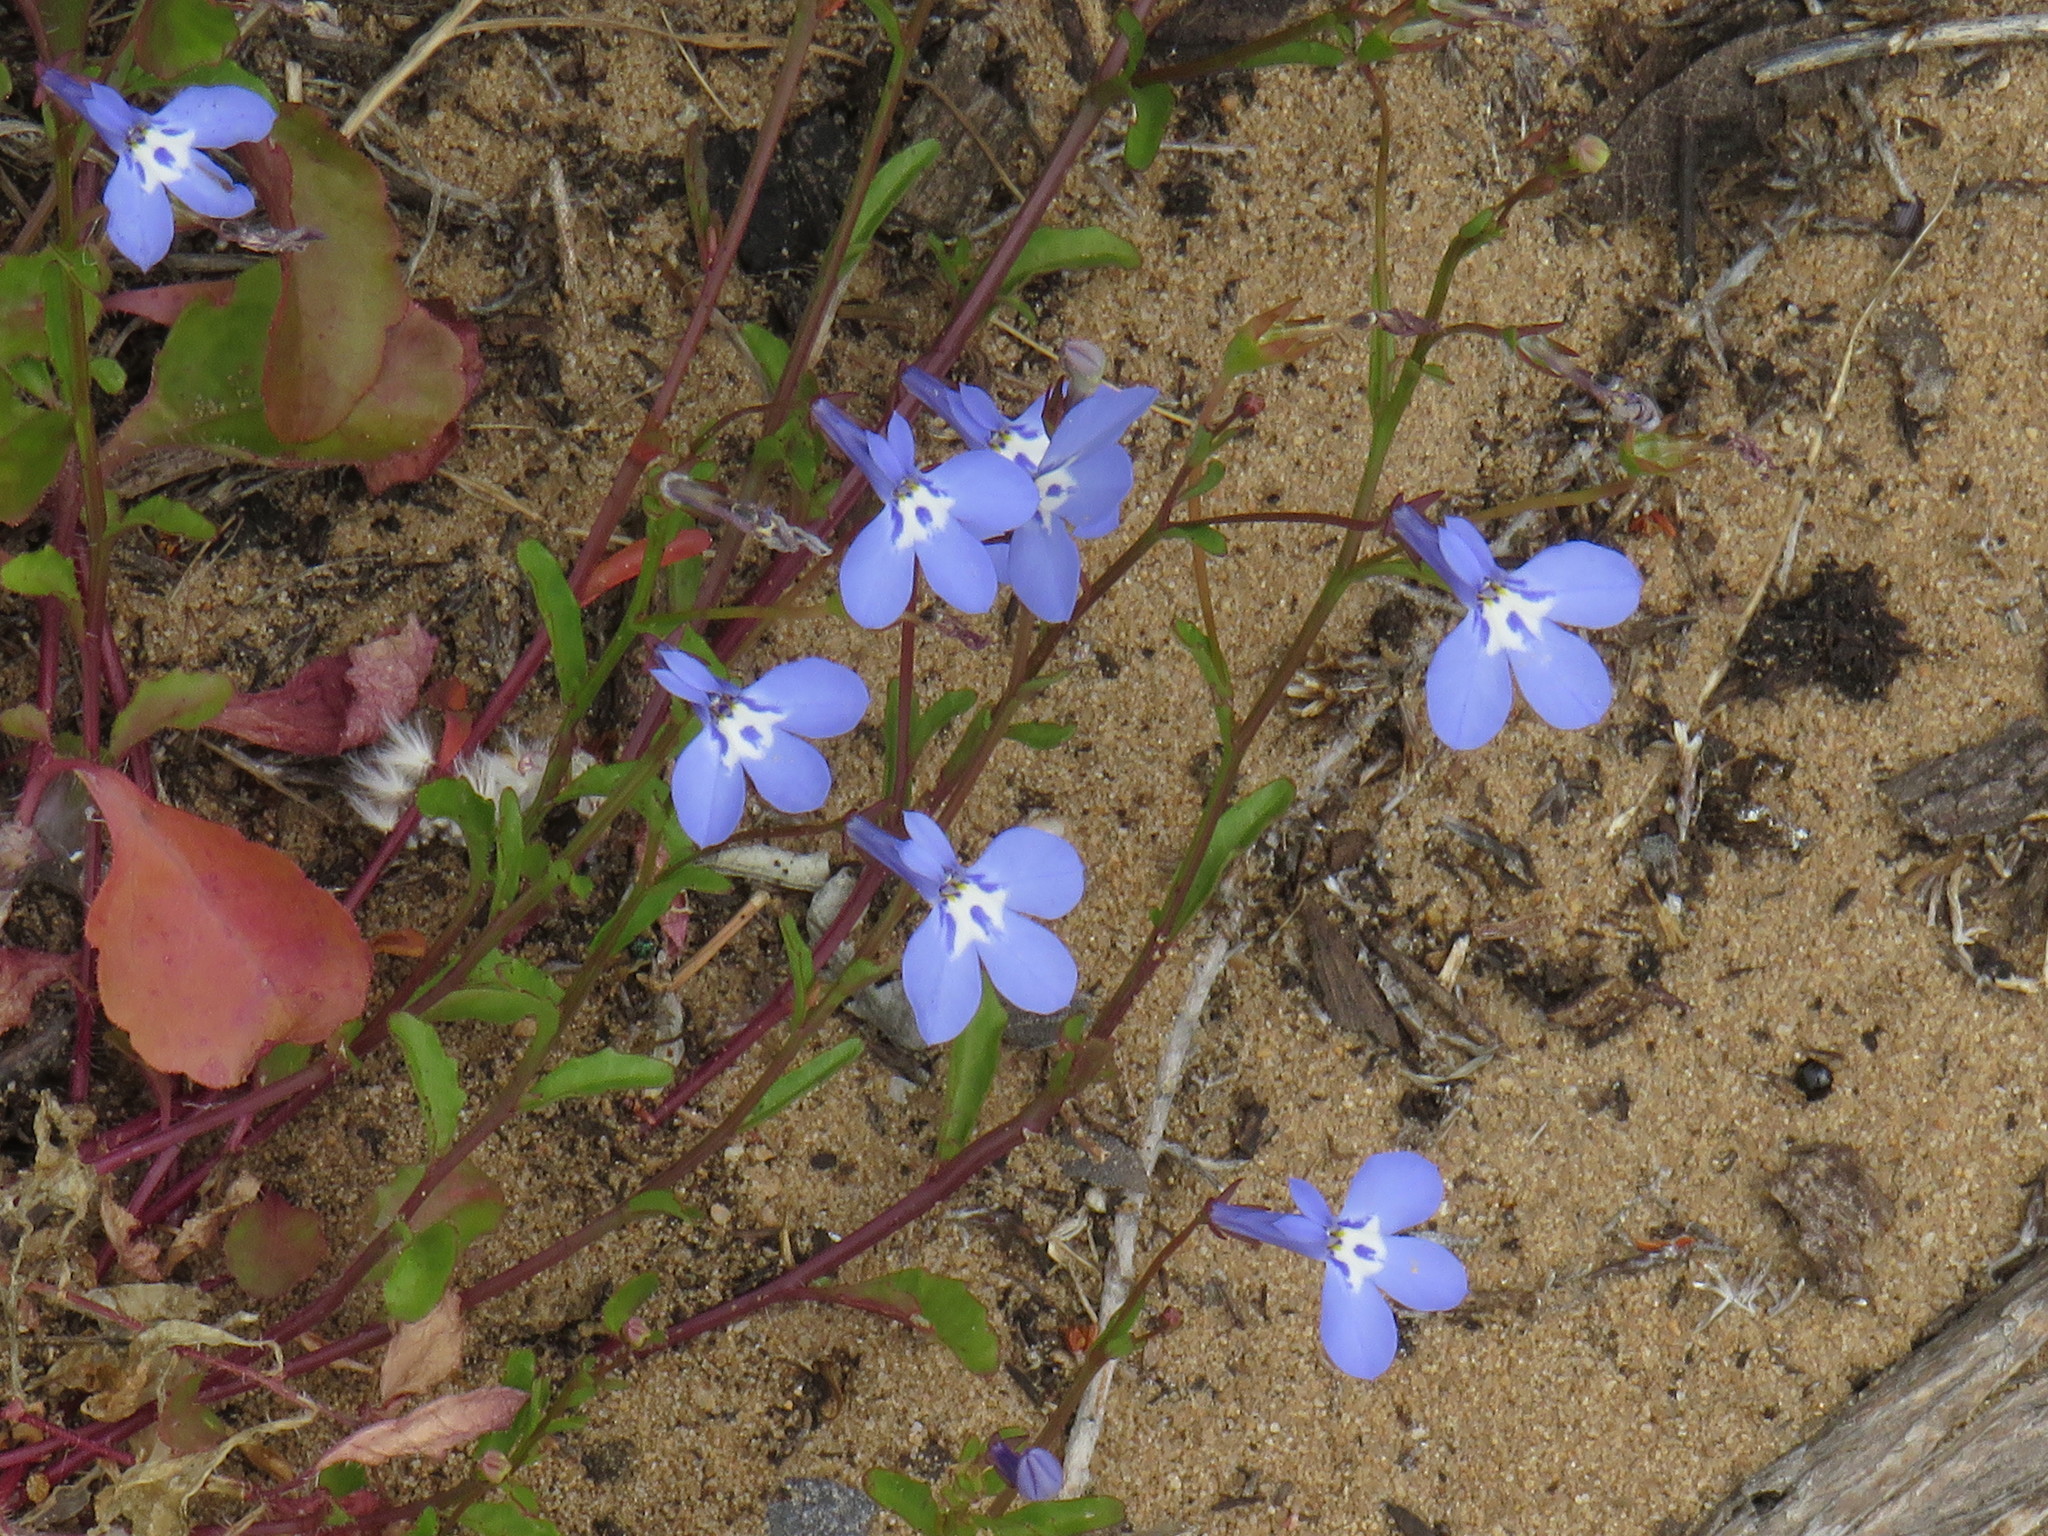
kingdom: Plantae
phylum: Tracheophyta
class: Magnoliopsida
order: Asterales
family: Campanulaceae
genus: Lobelia
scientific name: Lobelia erinus
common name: Edging lobelia
